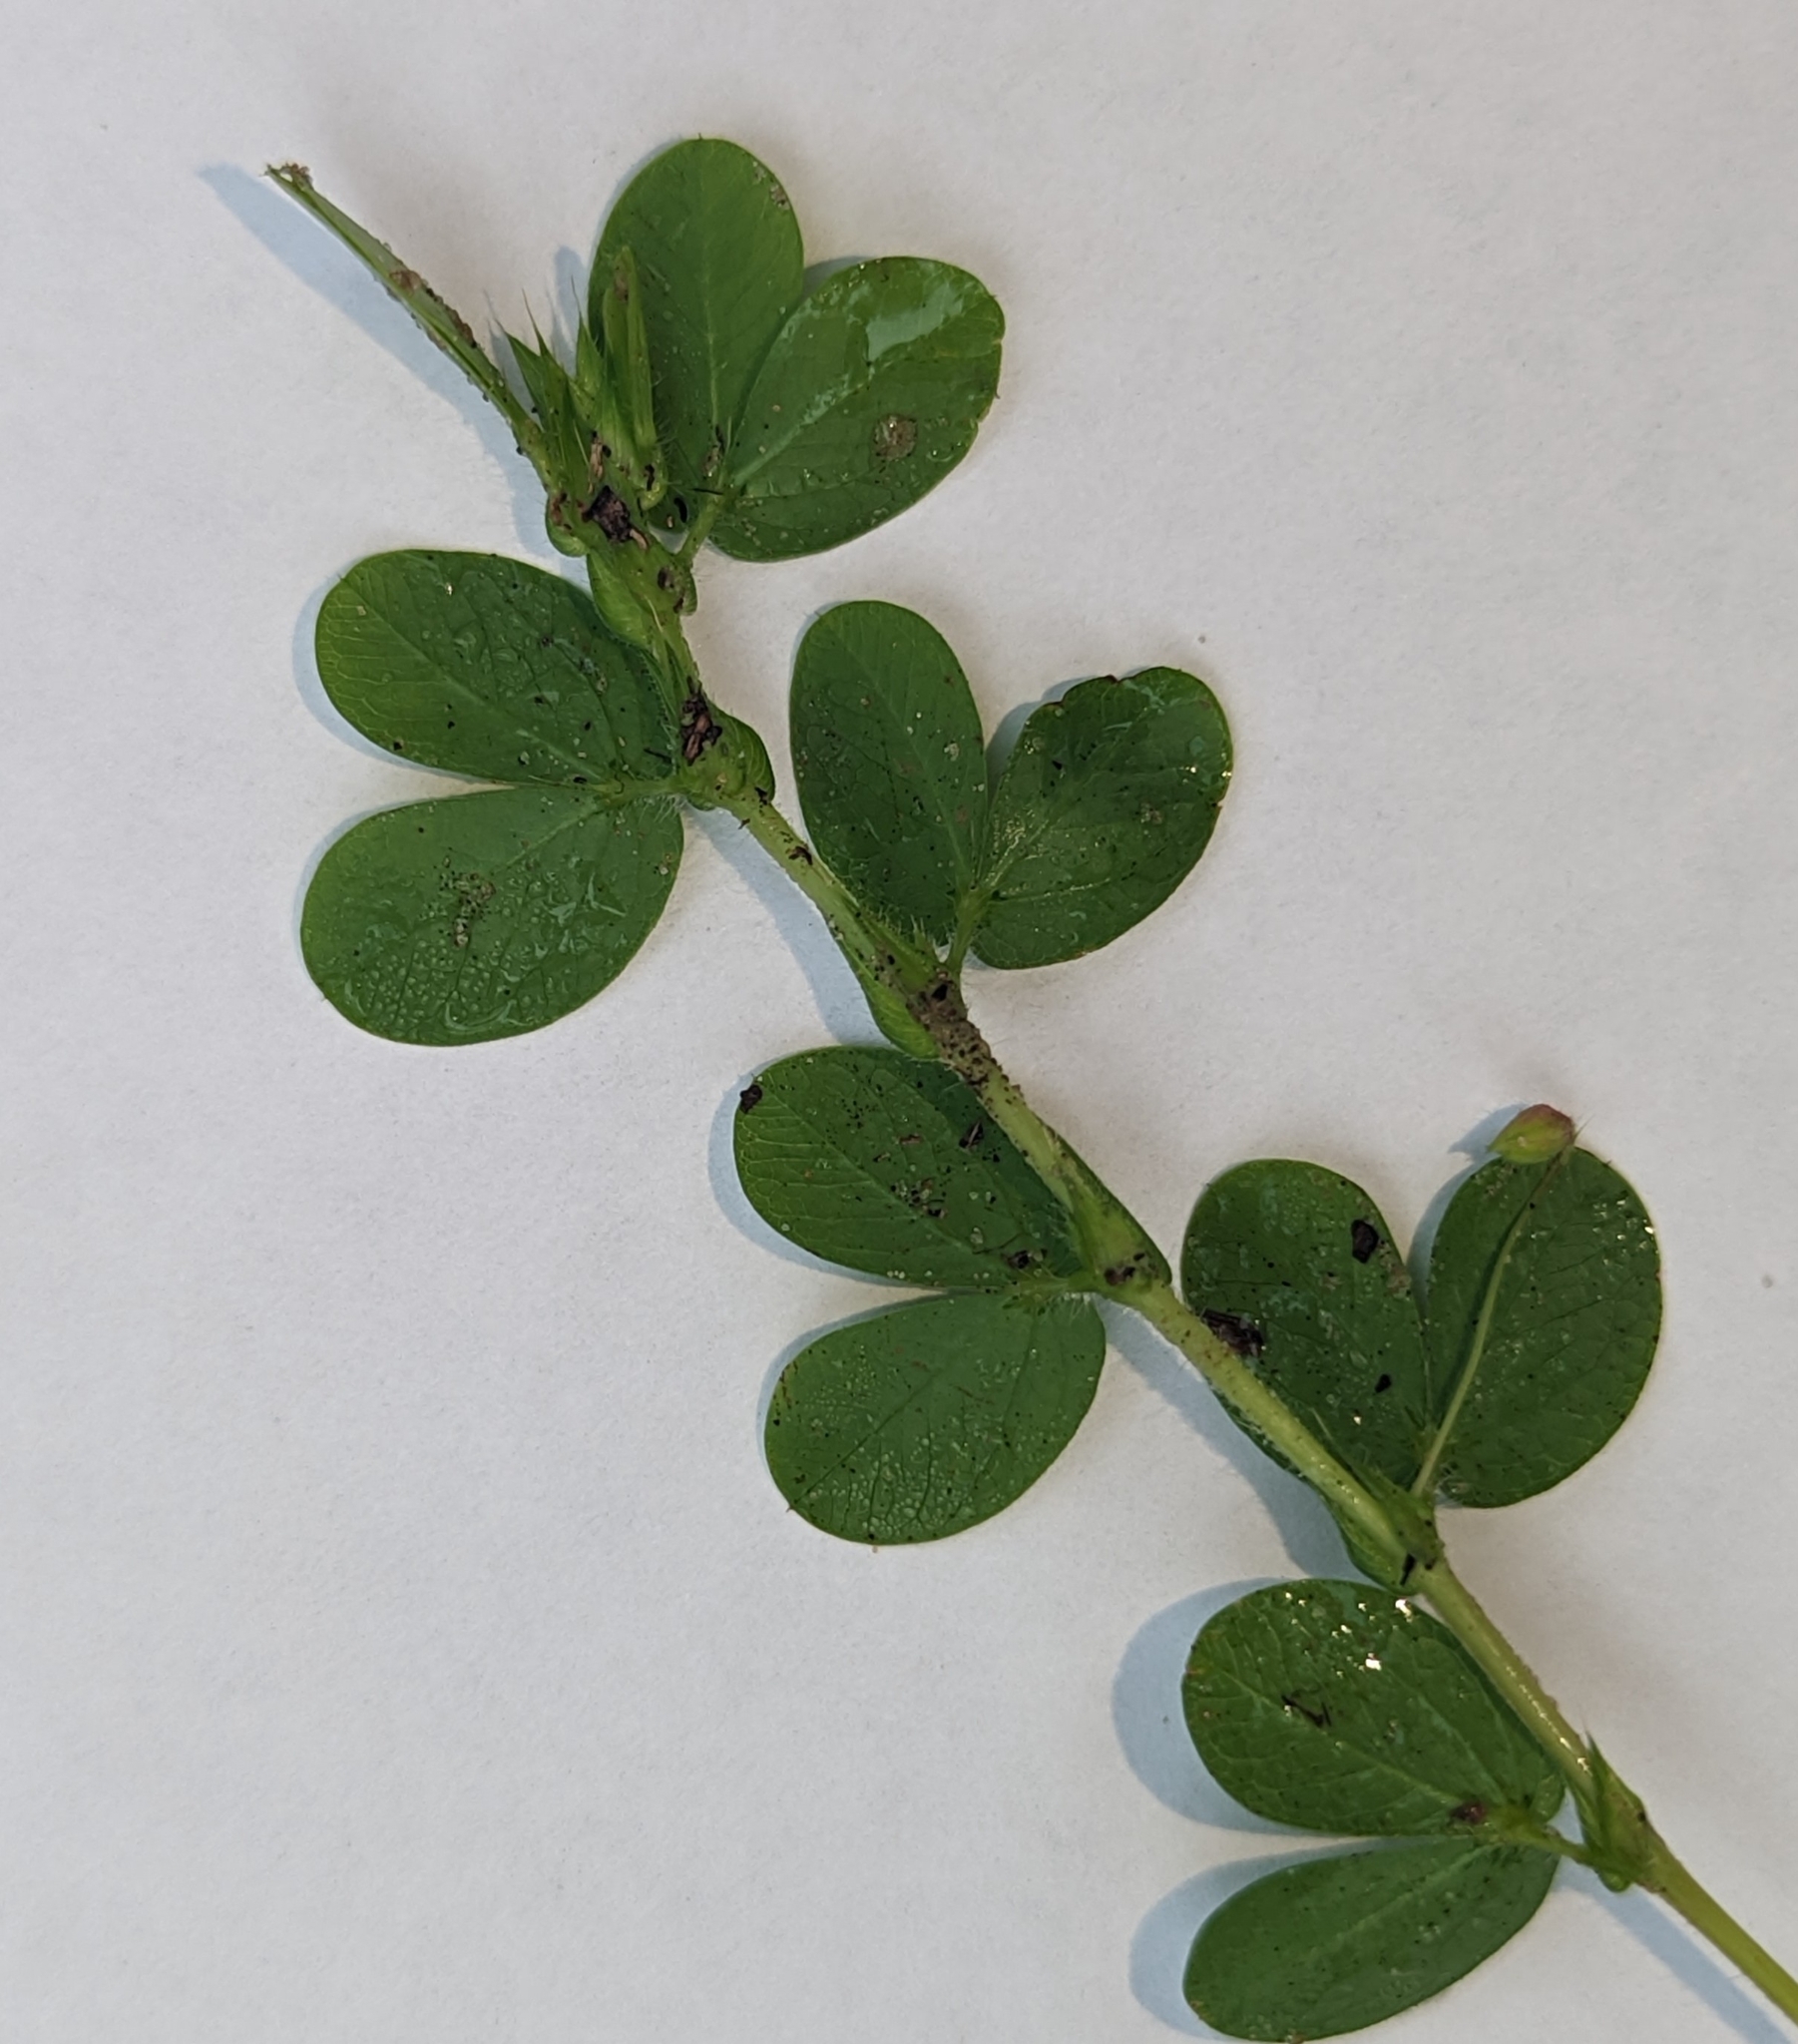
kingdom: Plantae
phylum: Tracheophyta
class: Magnoliopsida
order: Fabales
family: Fabaceae
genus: Chamaecrista
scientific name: Chamaecrista rotundifolia
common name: Round-leaf cassia
